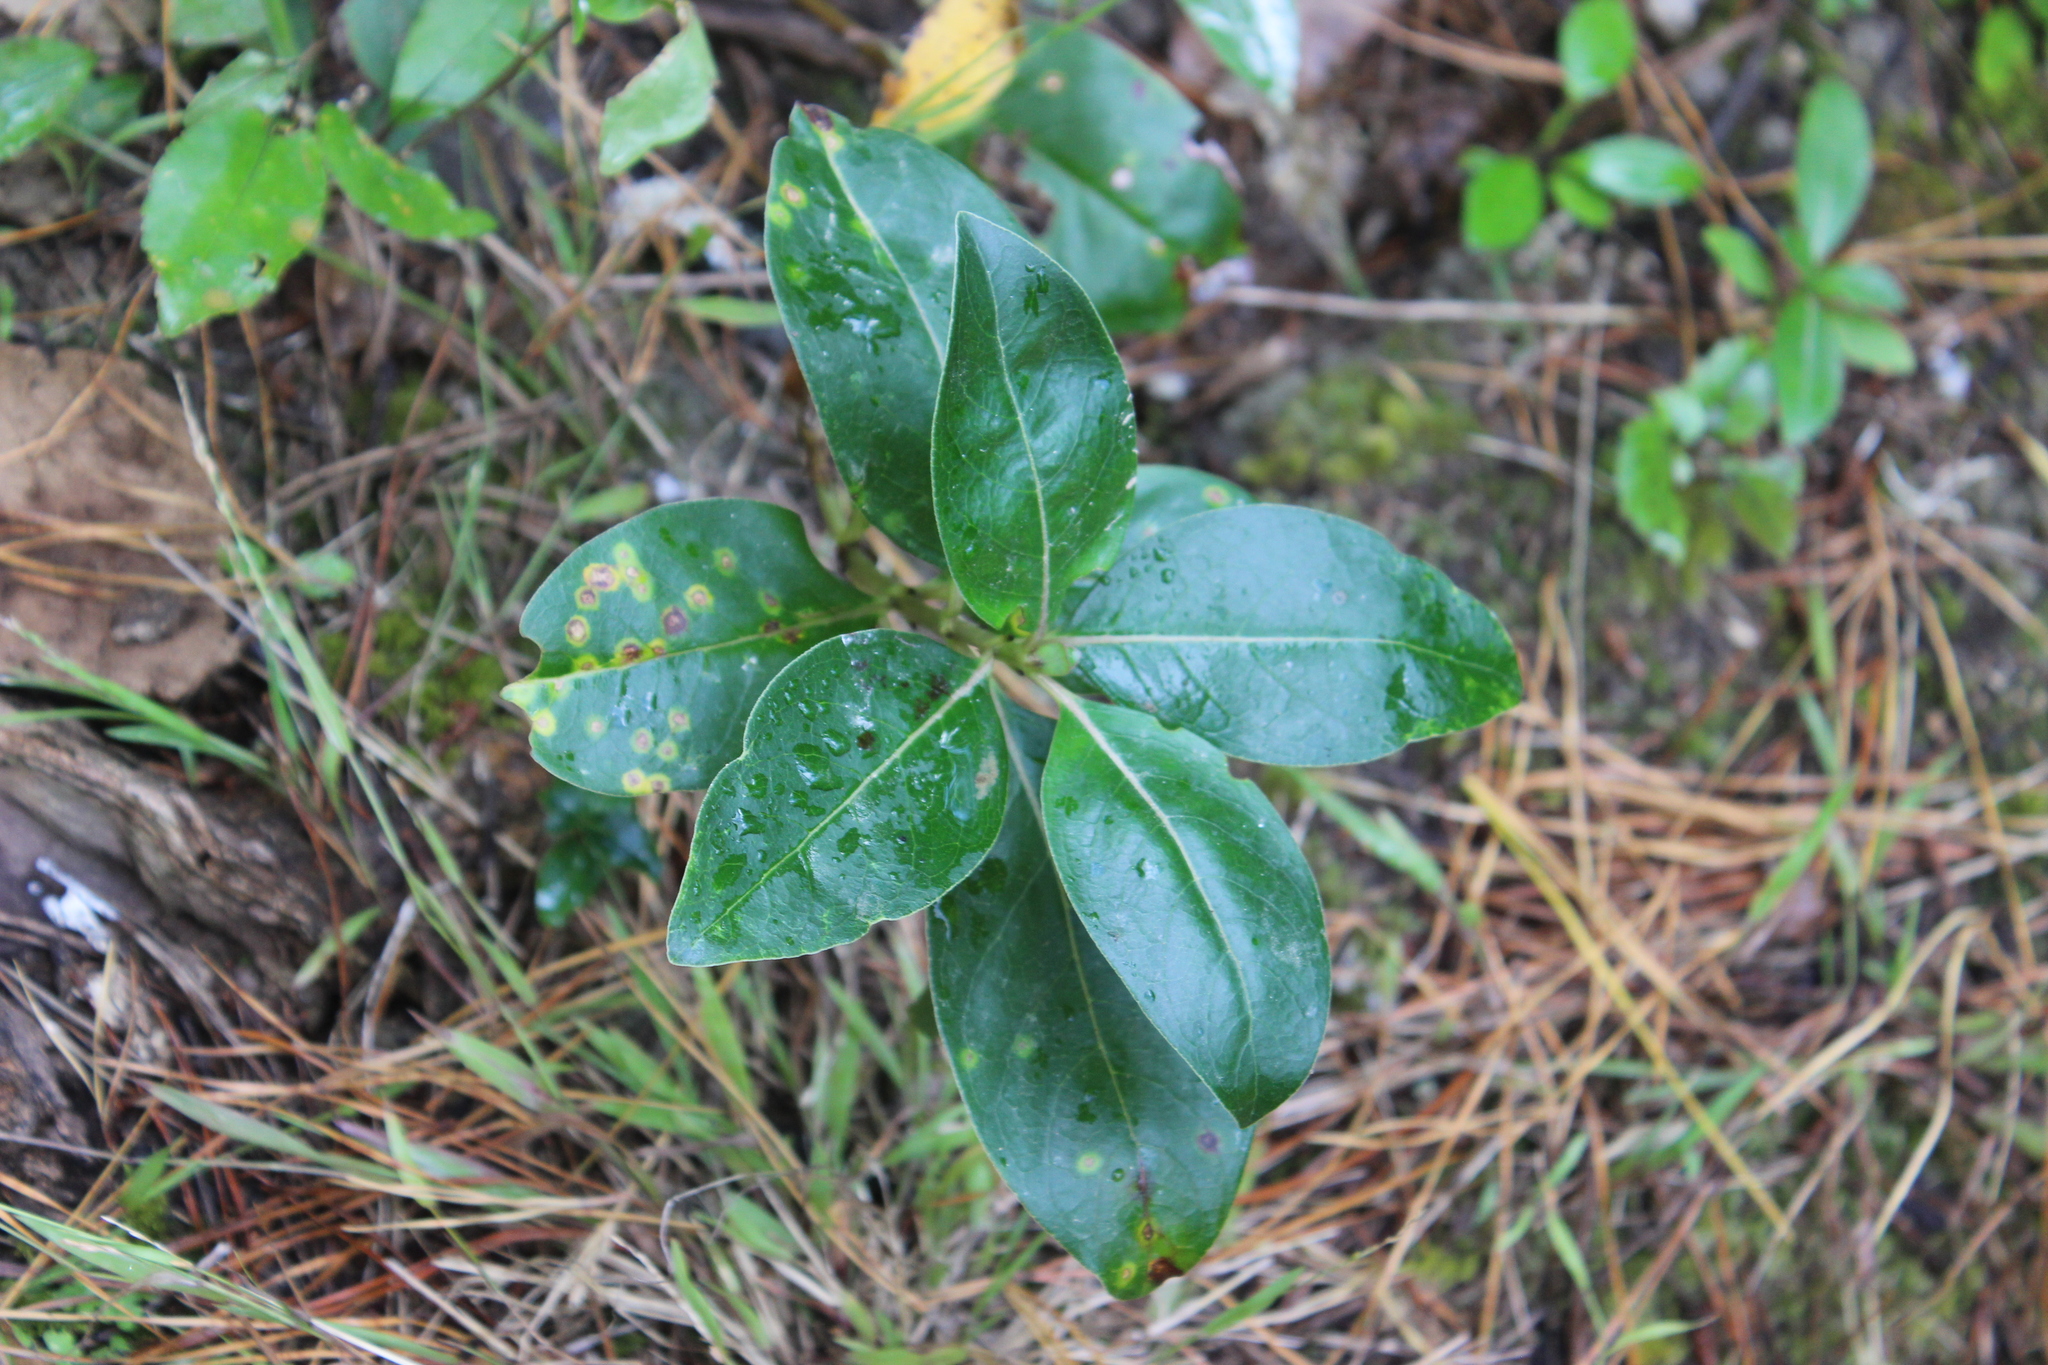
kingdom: Plantae
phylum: Tracheophyta
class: Magnoliopsida
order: Gentianales
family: Rubiaceae
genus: Coprosma
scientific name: Coprosma robusta
